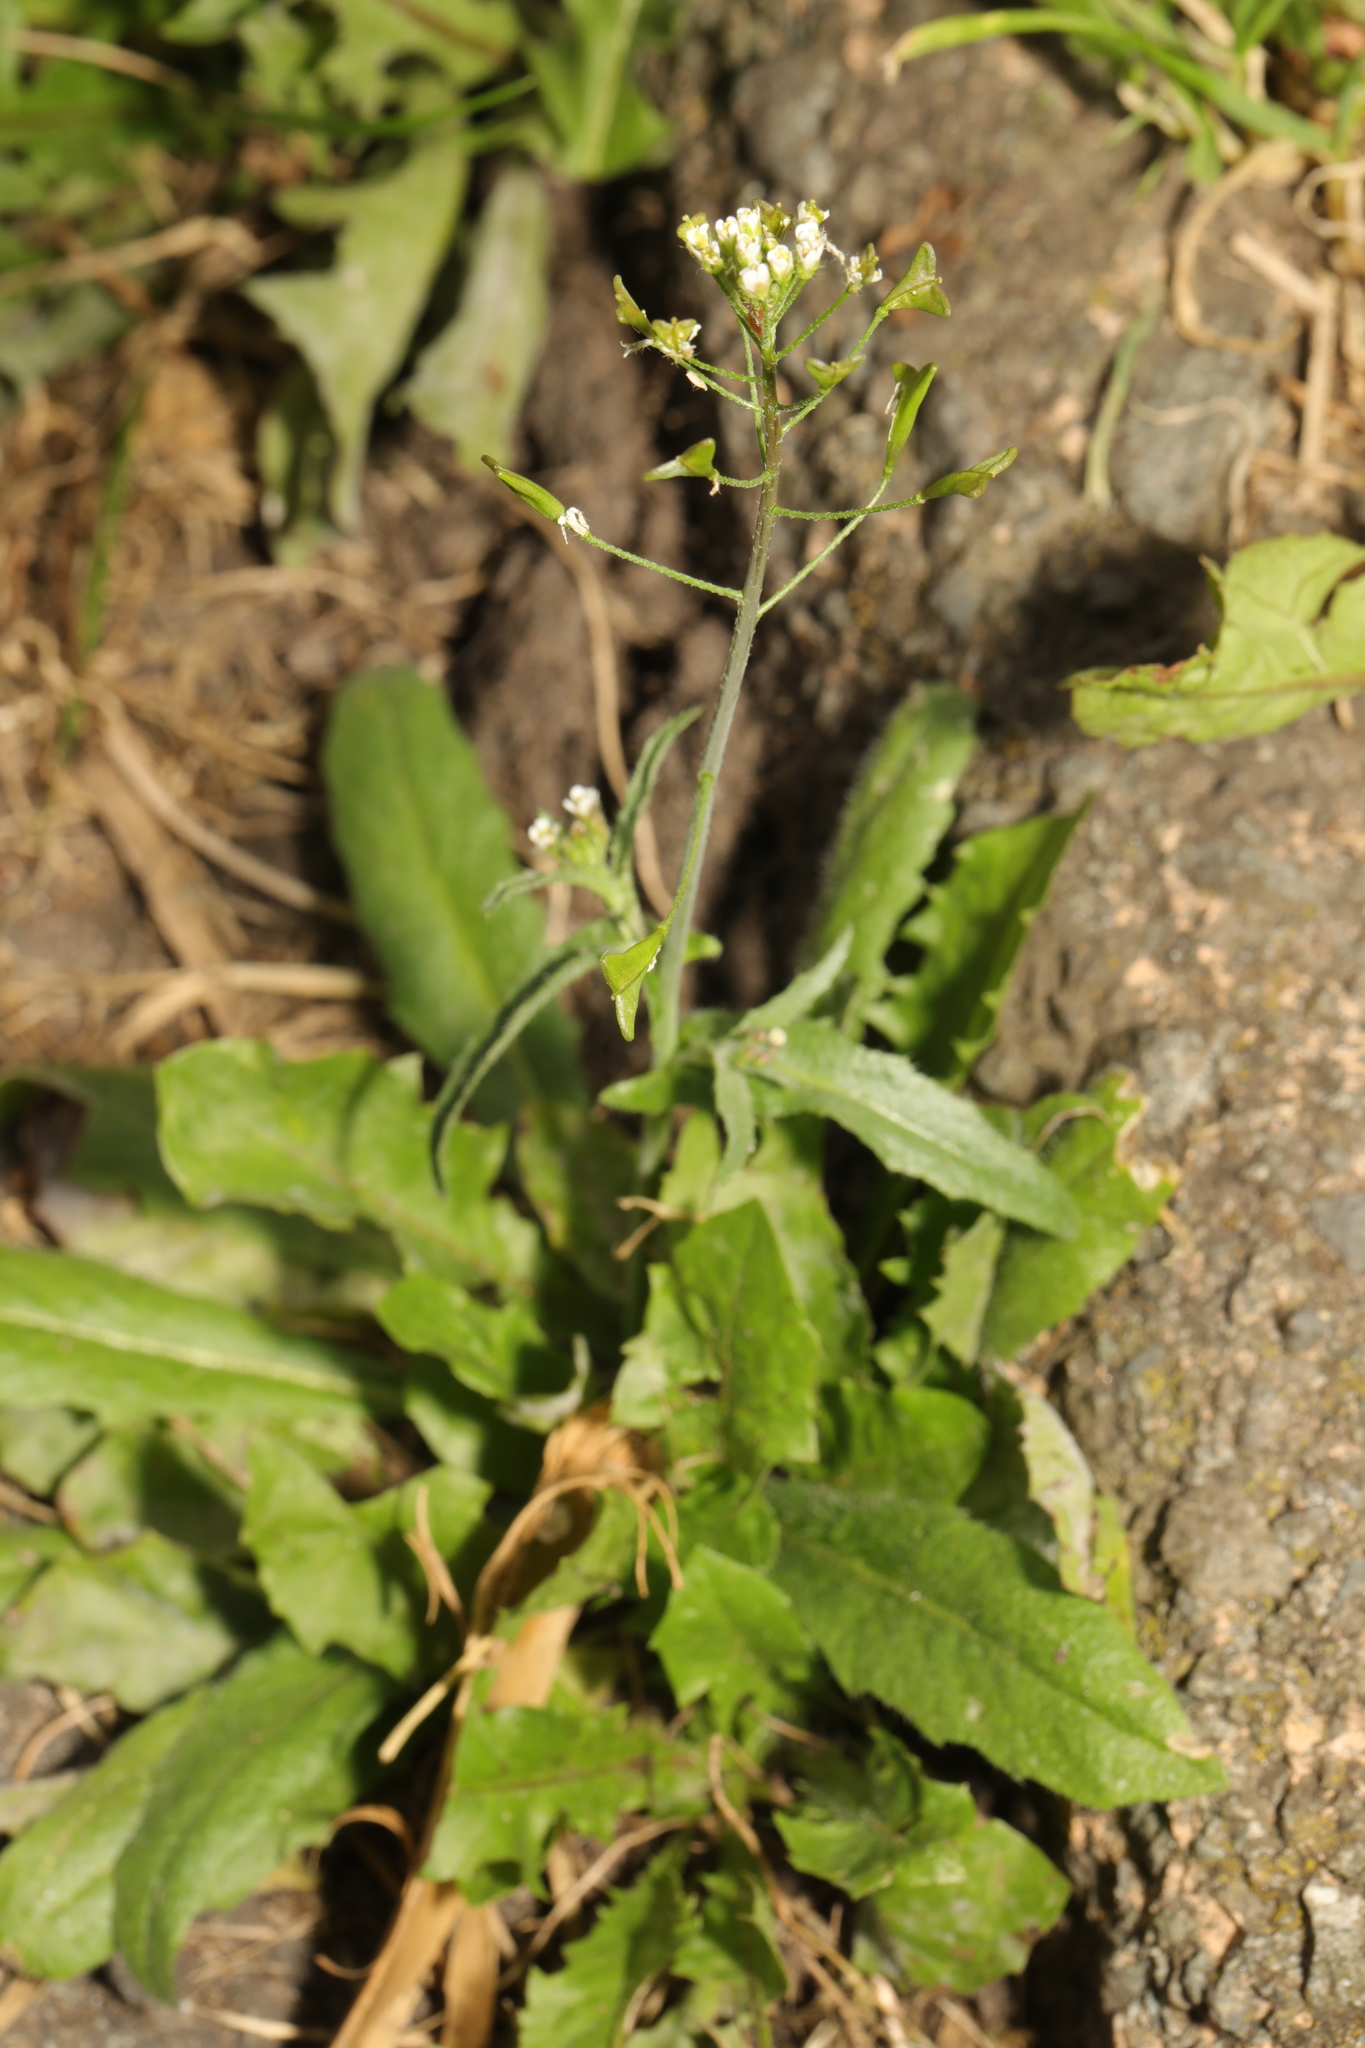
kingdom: Plantae
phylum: Tracheophyta
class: Magnoliopsida
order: Brassicales
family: Brassicaceae
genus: Capsella
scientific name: Capsella bursa-pastoris
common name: Shepherd's purse
